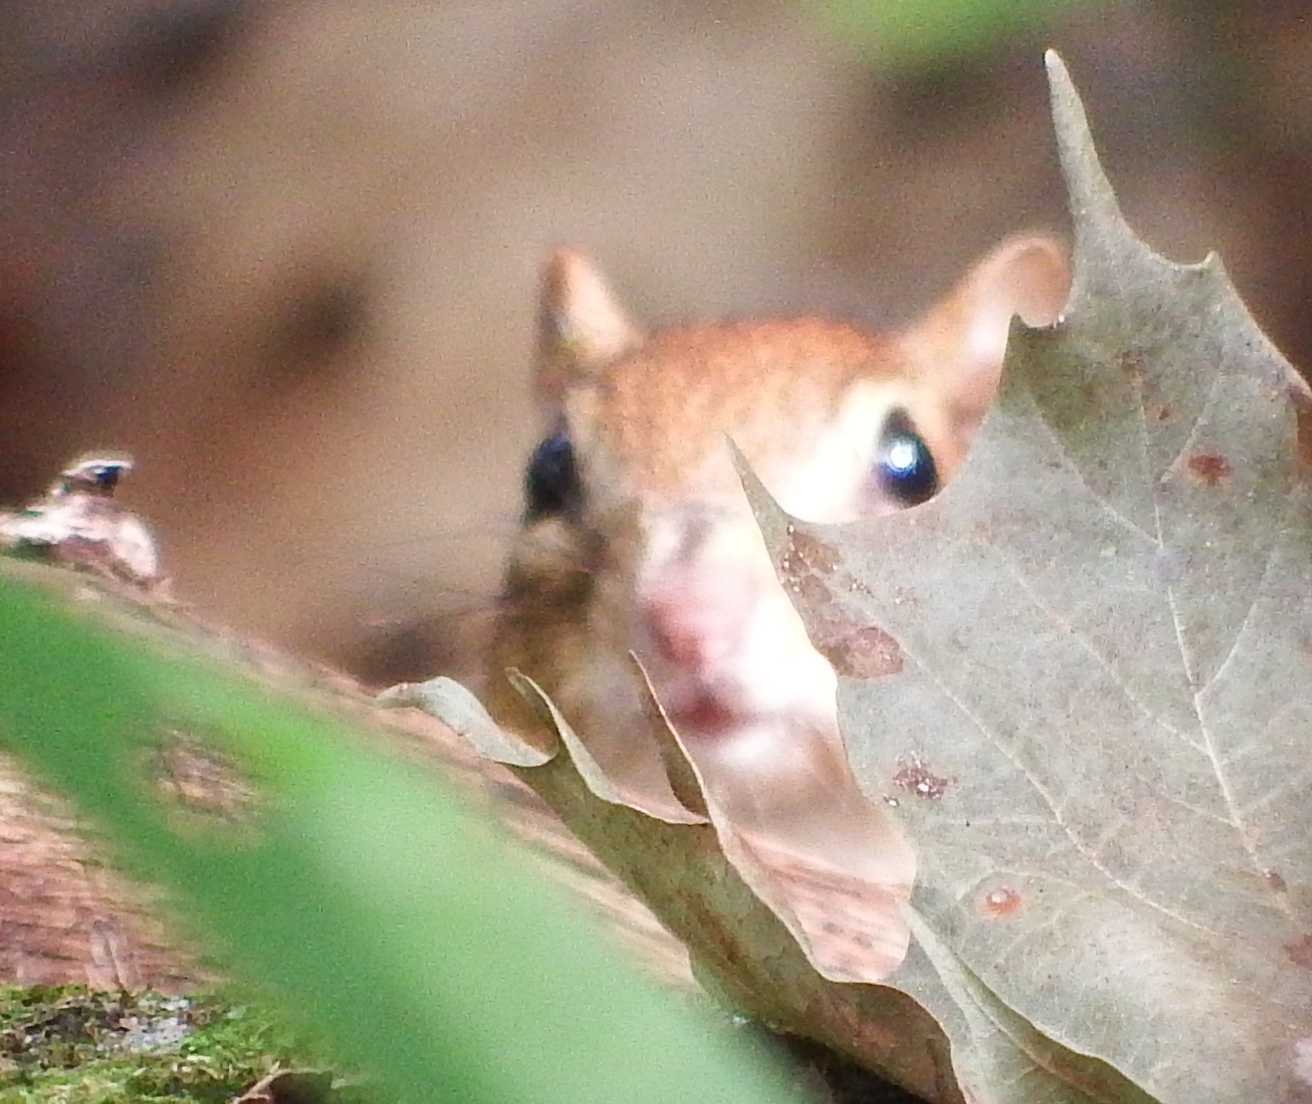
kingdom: Animalia
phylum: Chordata
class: Mammalia
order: Rodentia
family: Sciuridae
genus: Tamias
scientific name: Tamias striatus
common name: Eastern chipmunk
